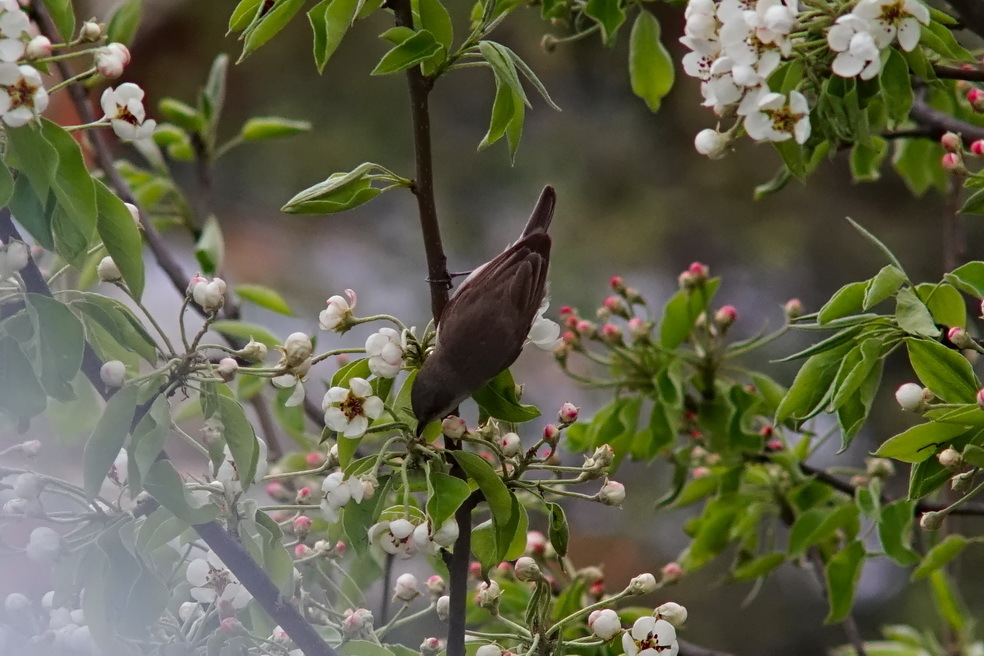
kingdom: Animalia
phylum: Chordata
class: Aves
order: Passeriformes
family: Sylviidae
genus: Sylvia
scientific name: Sylvia curruca
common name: Lesser whitethroat
